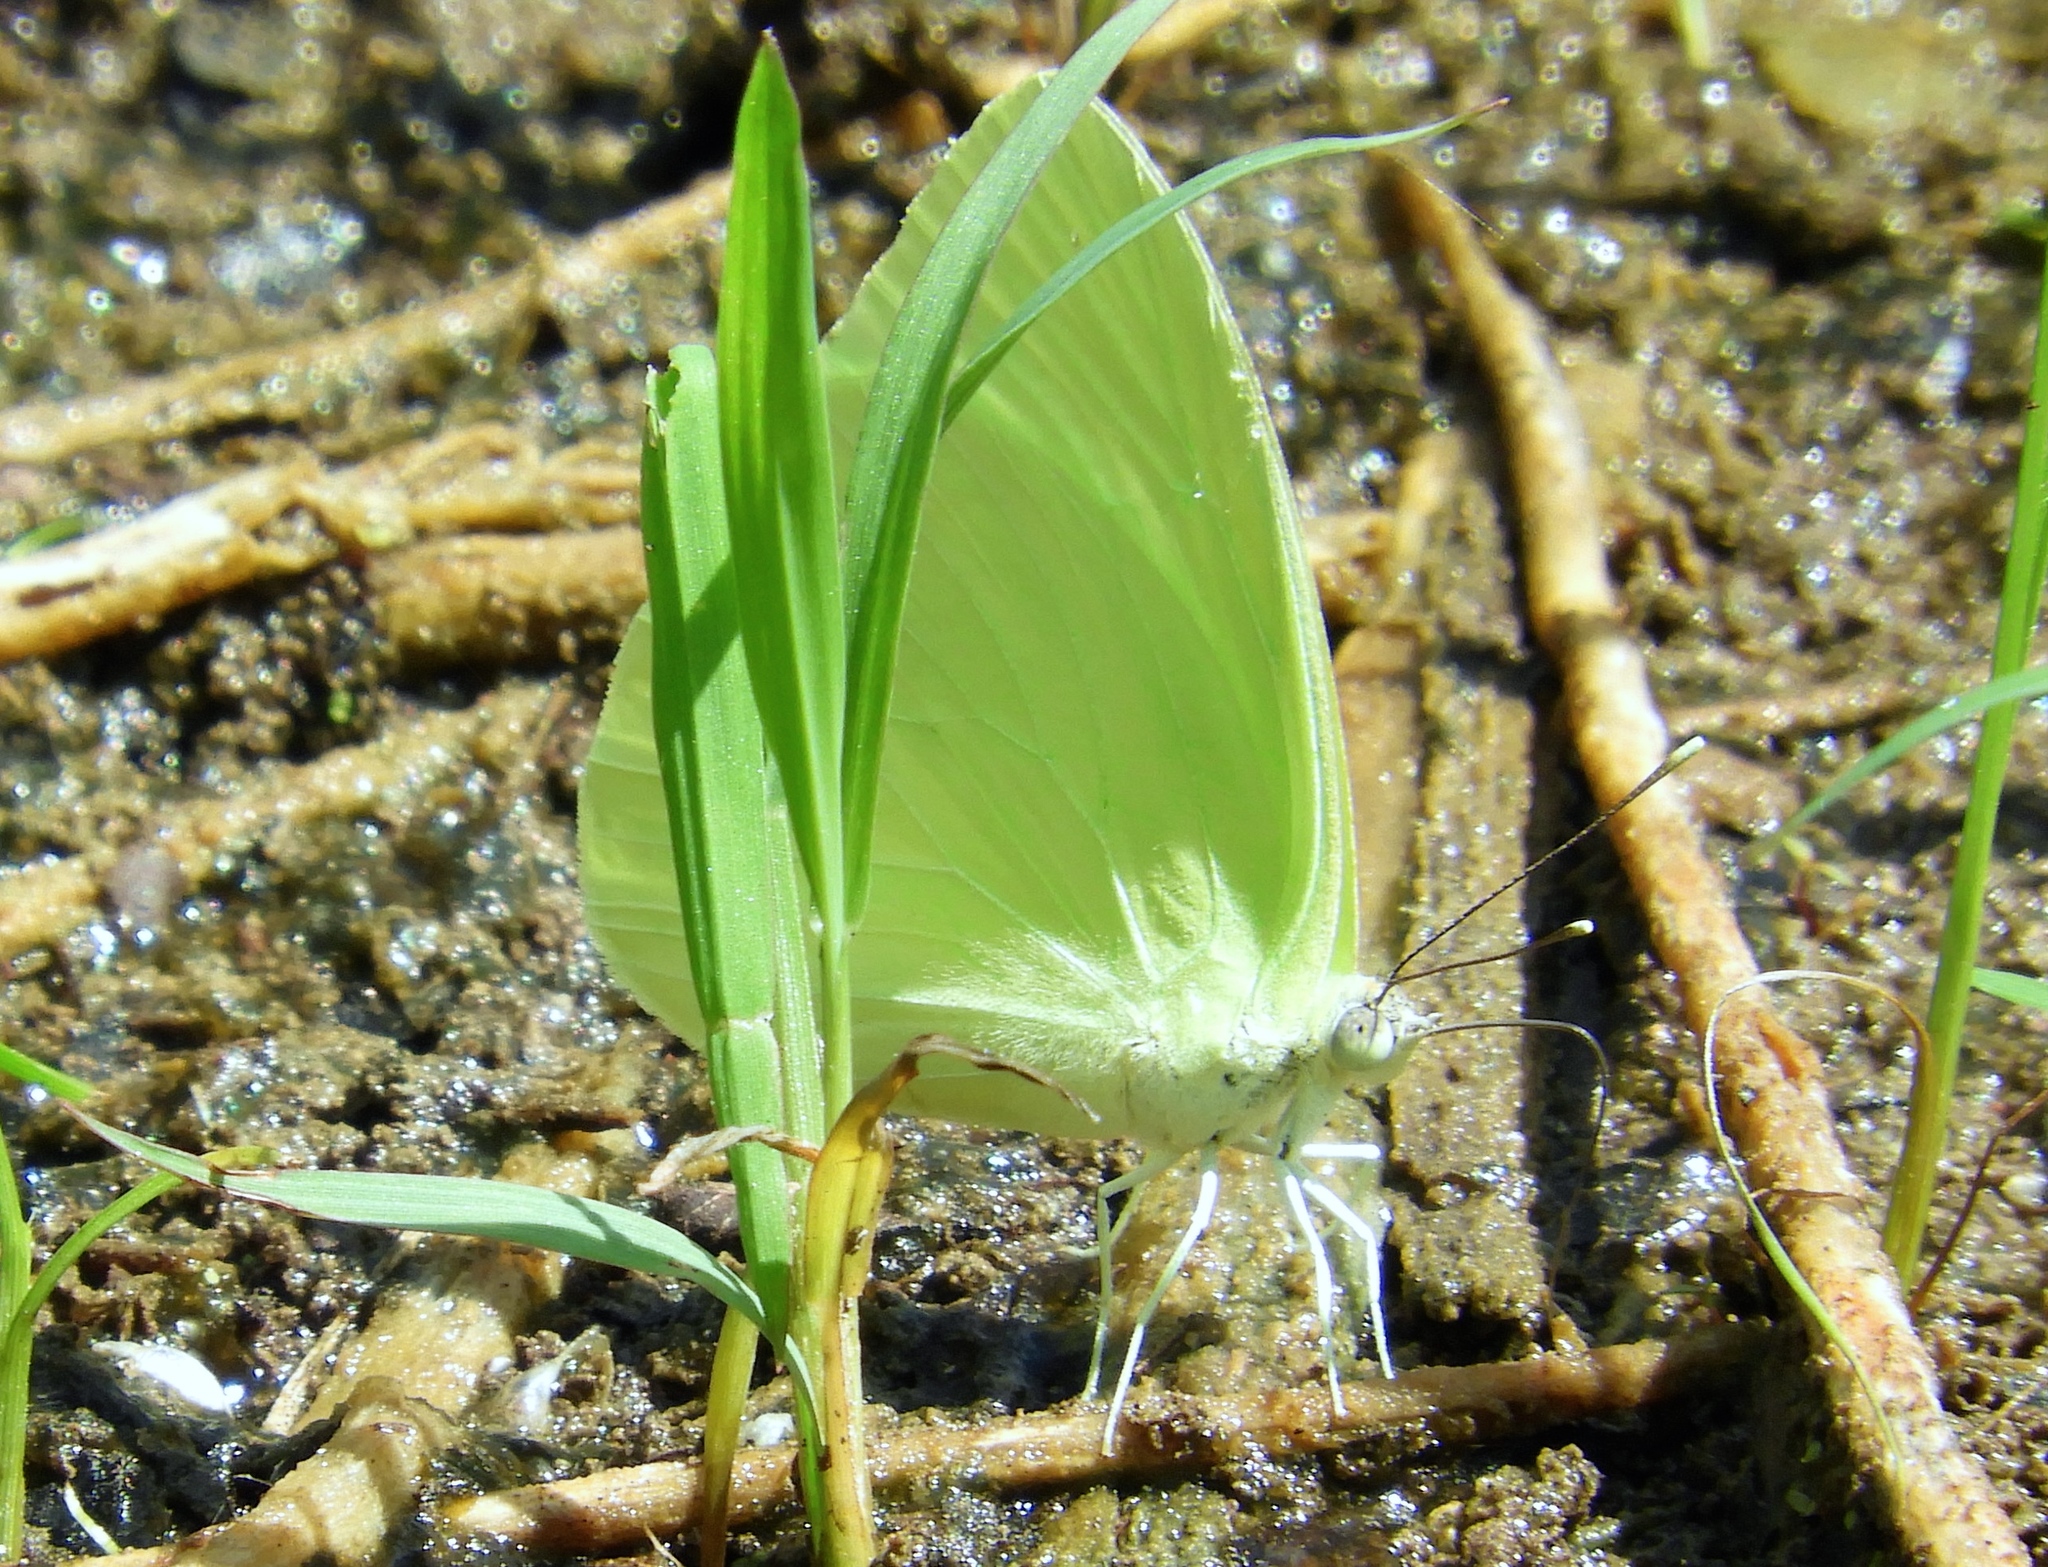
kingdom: Animalia
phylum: Arthropoda
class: Insecta
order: Lepidoptera
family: Pieridae
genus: Aphrissa
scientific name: Aphrissa statira
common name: Statira sulphur
